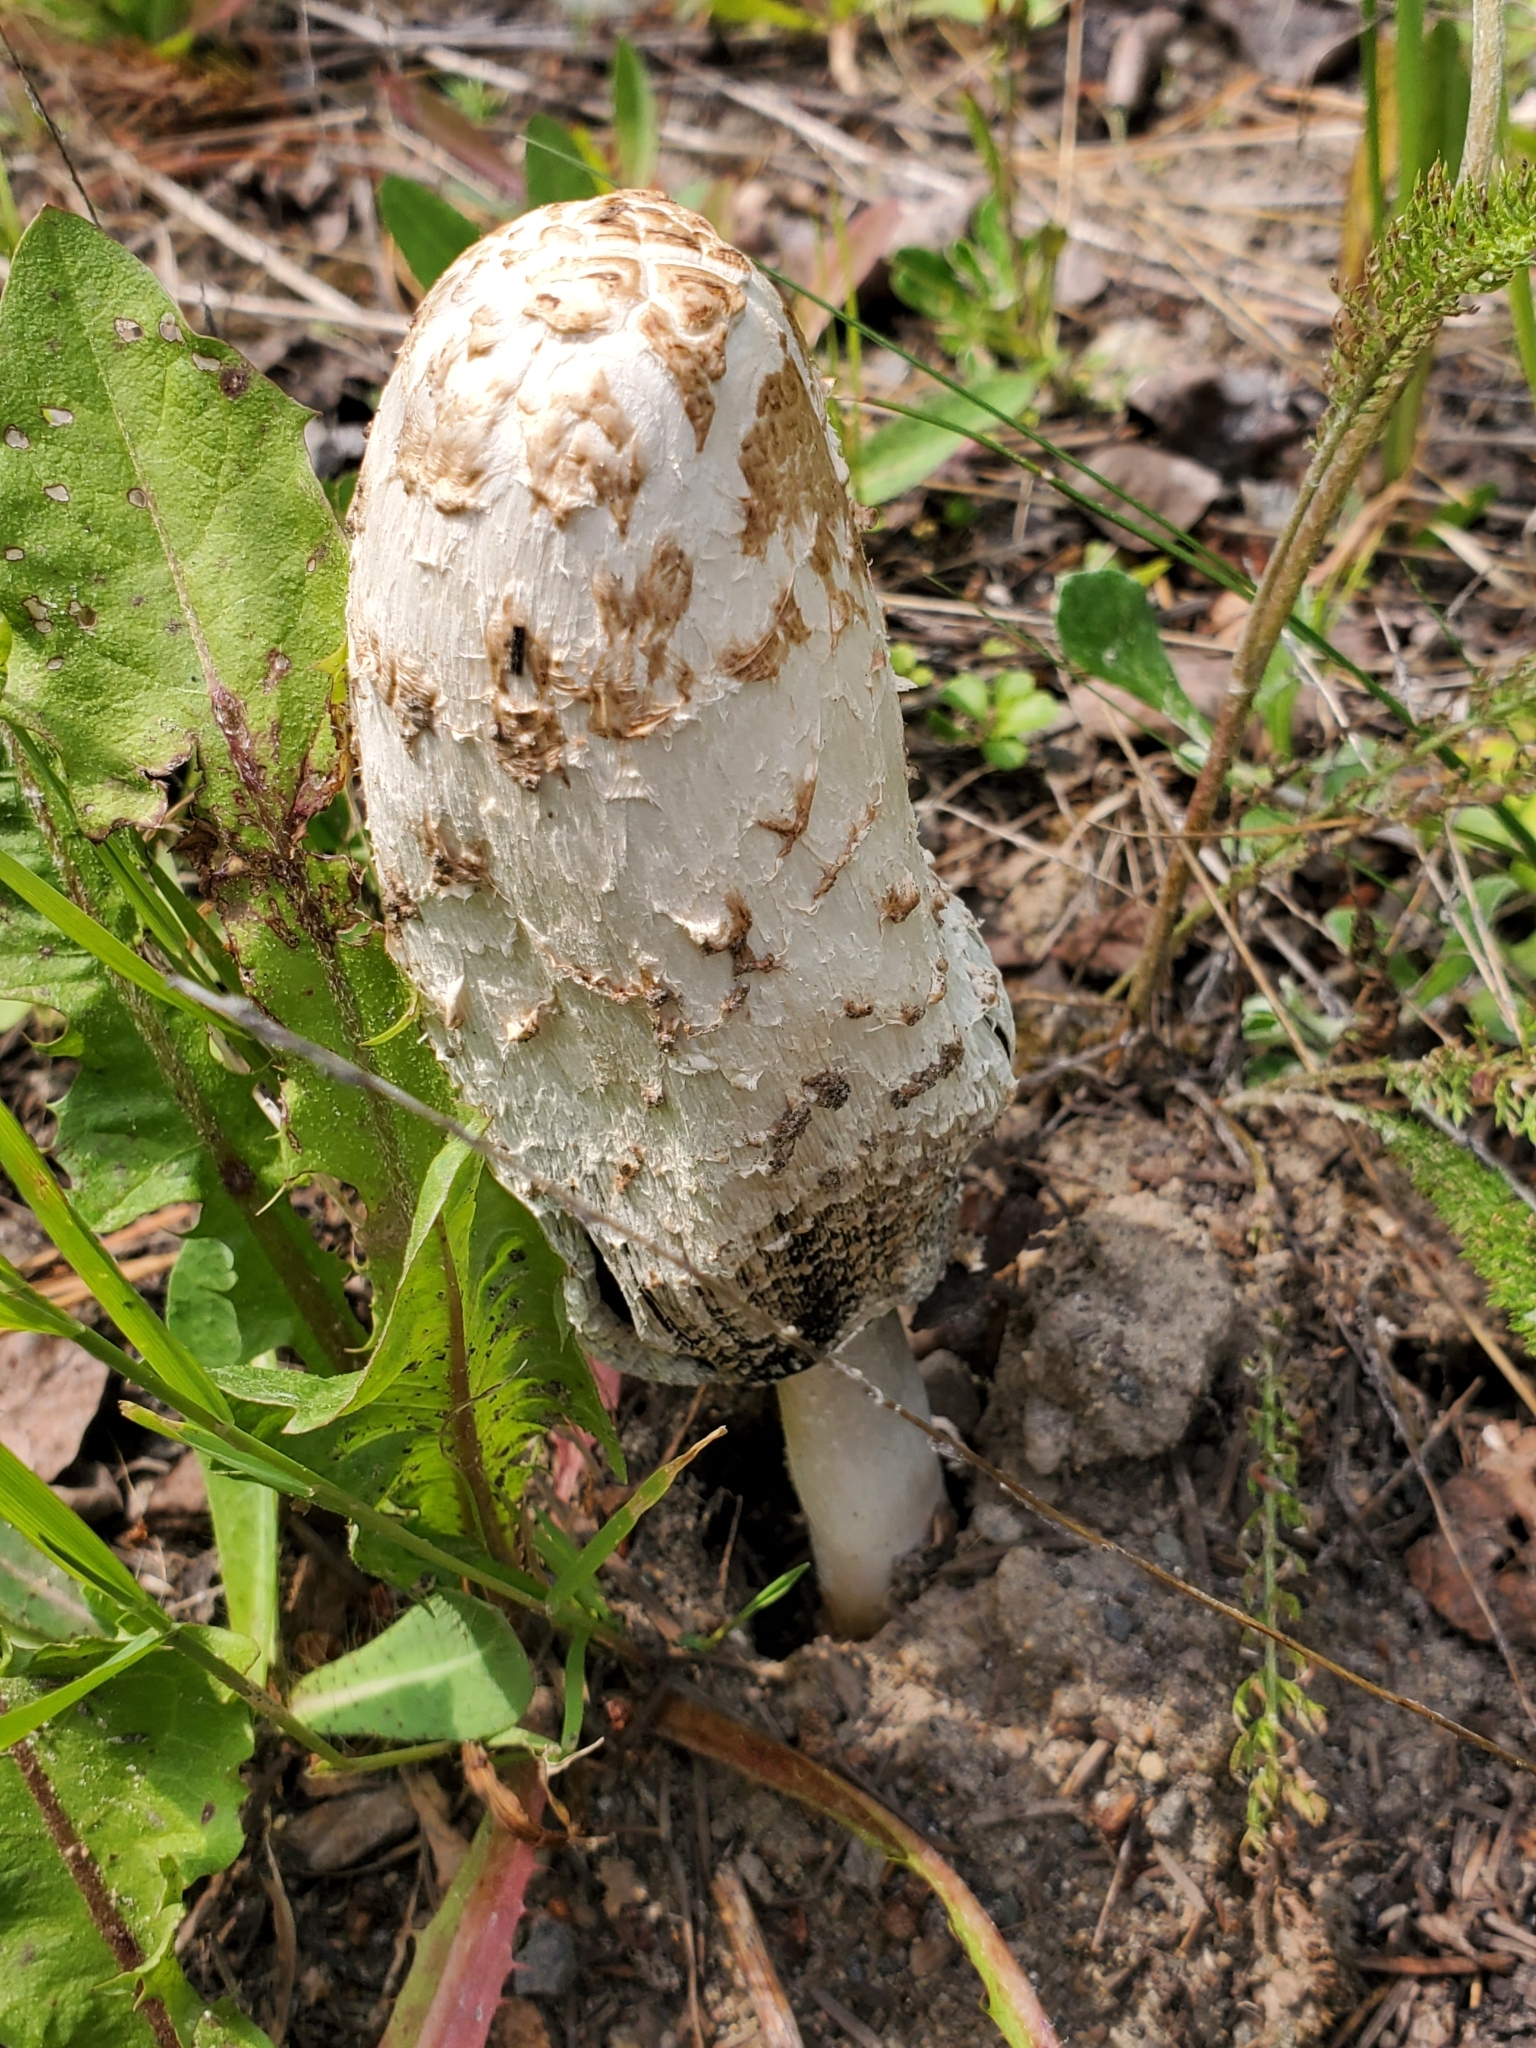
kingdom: Fungi
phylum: Basidiomycota
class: Agaricomycetes
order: Agaricales
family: Agaricaceae
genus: Coprinus
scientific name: Coprinus comatus
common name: Lawyer's wig
